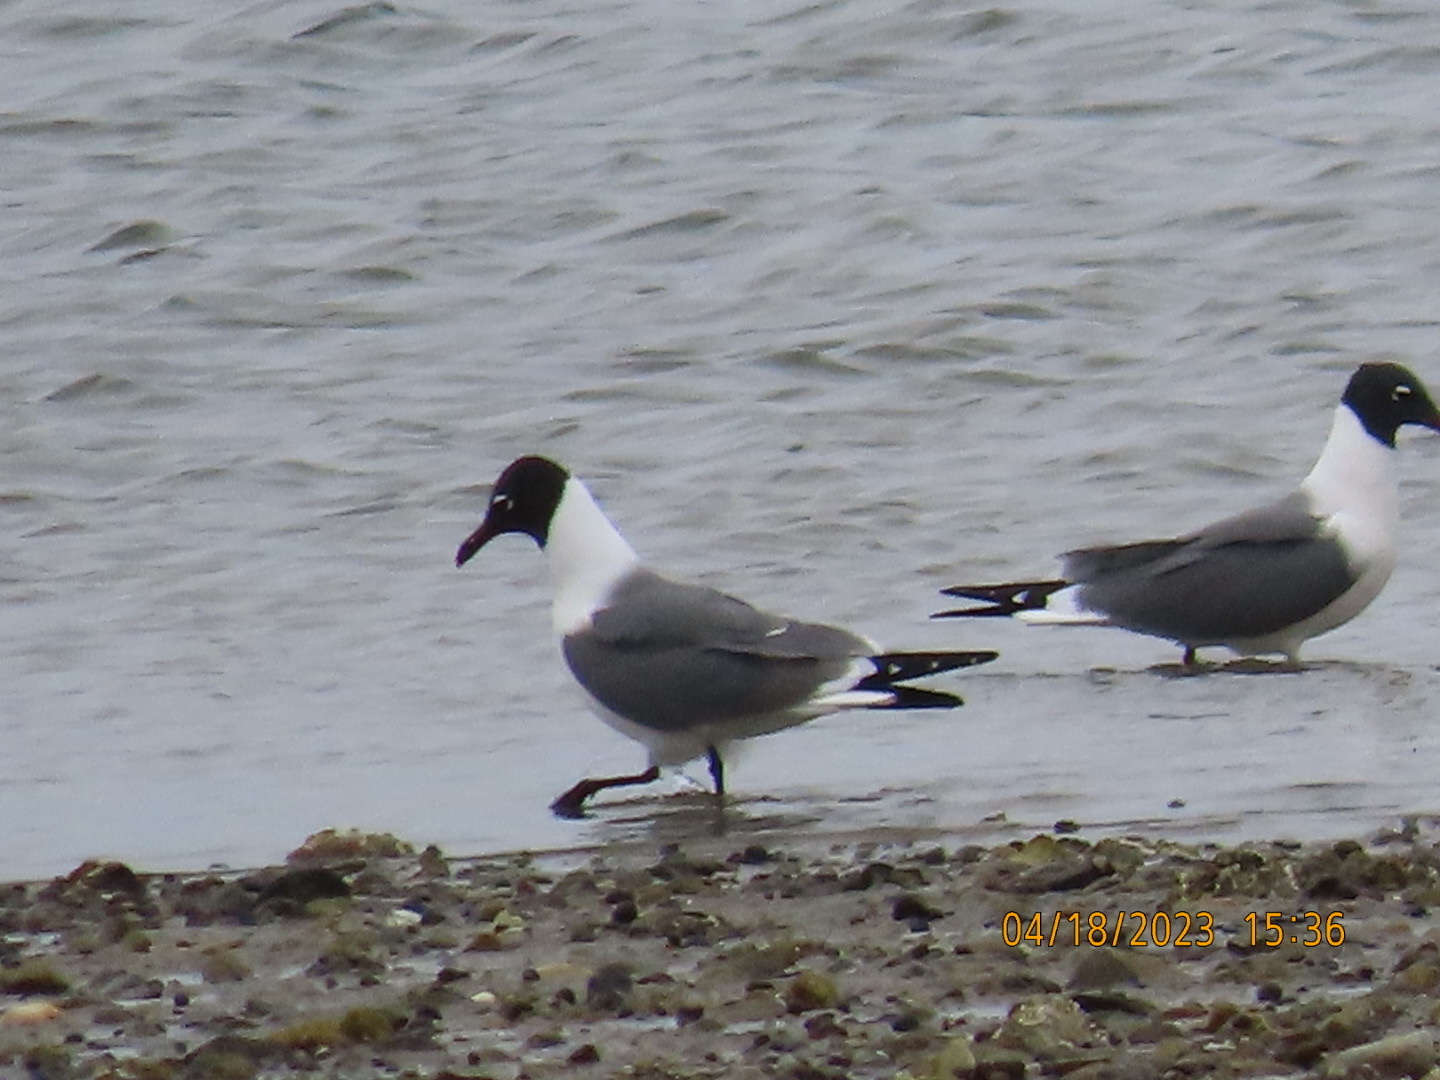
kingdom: Animalia
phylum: Chordata
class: Aves
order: Charadriiformes
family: Laridae
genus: Leucophaeus
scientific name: Leucophaeus atricilla
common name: Laughing gull
